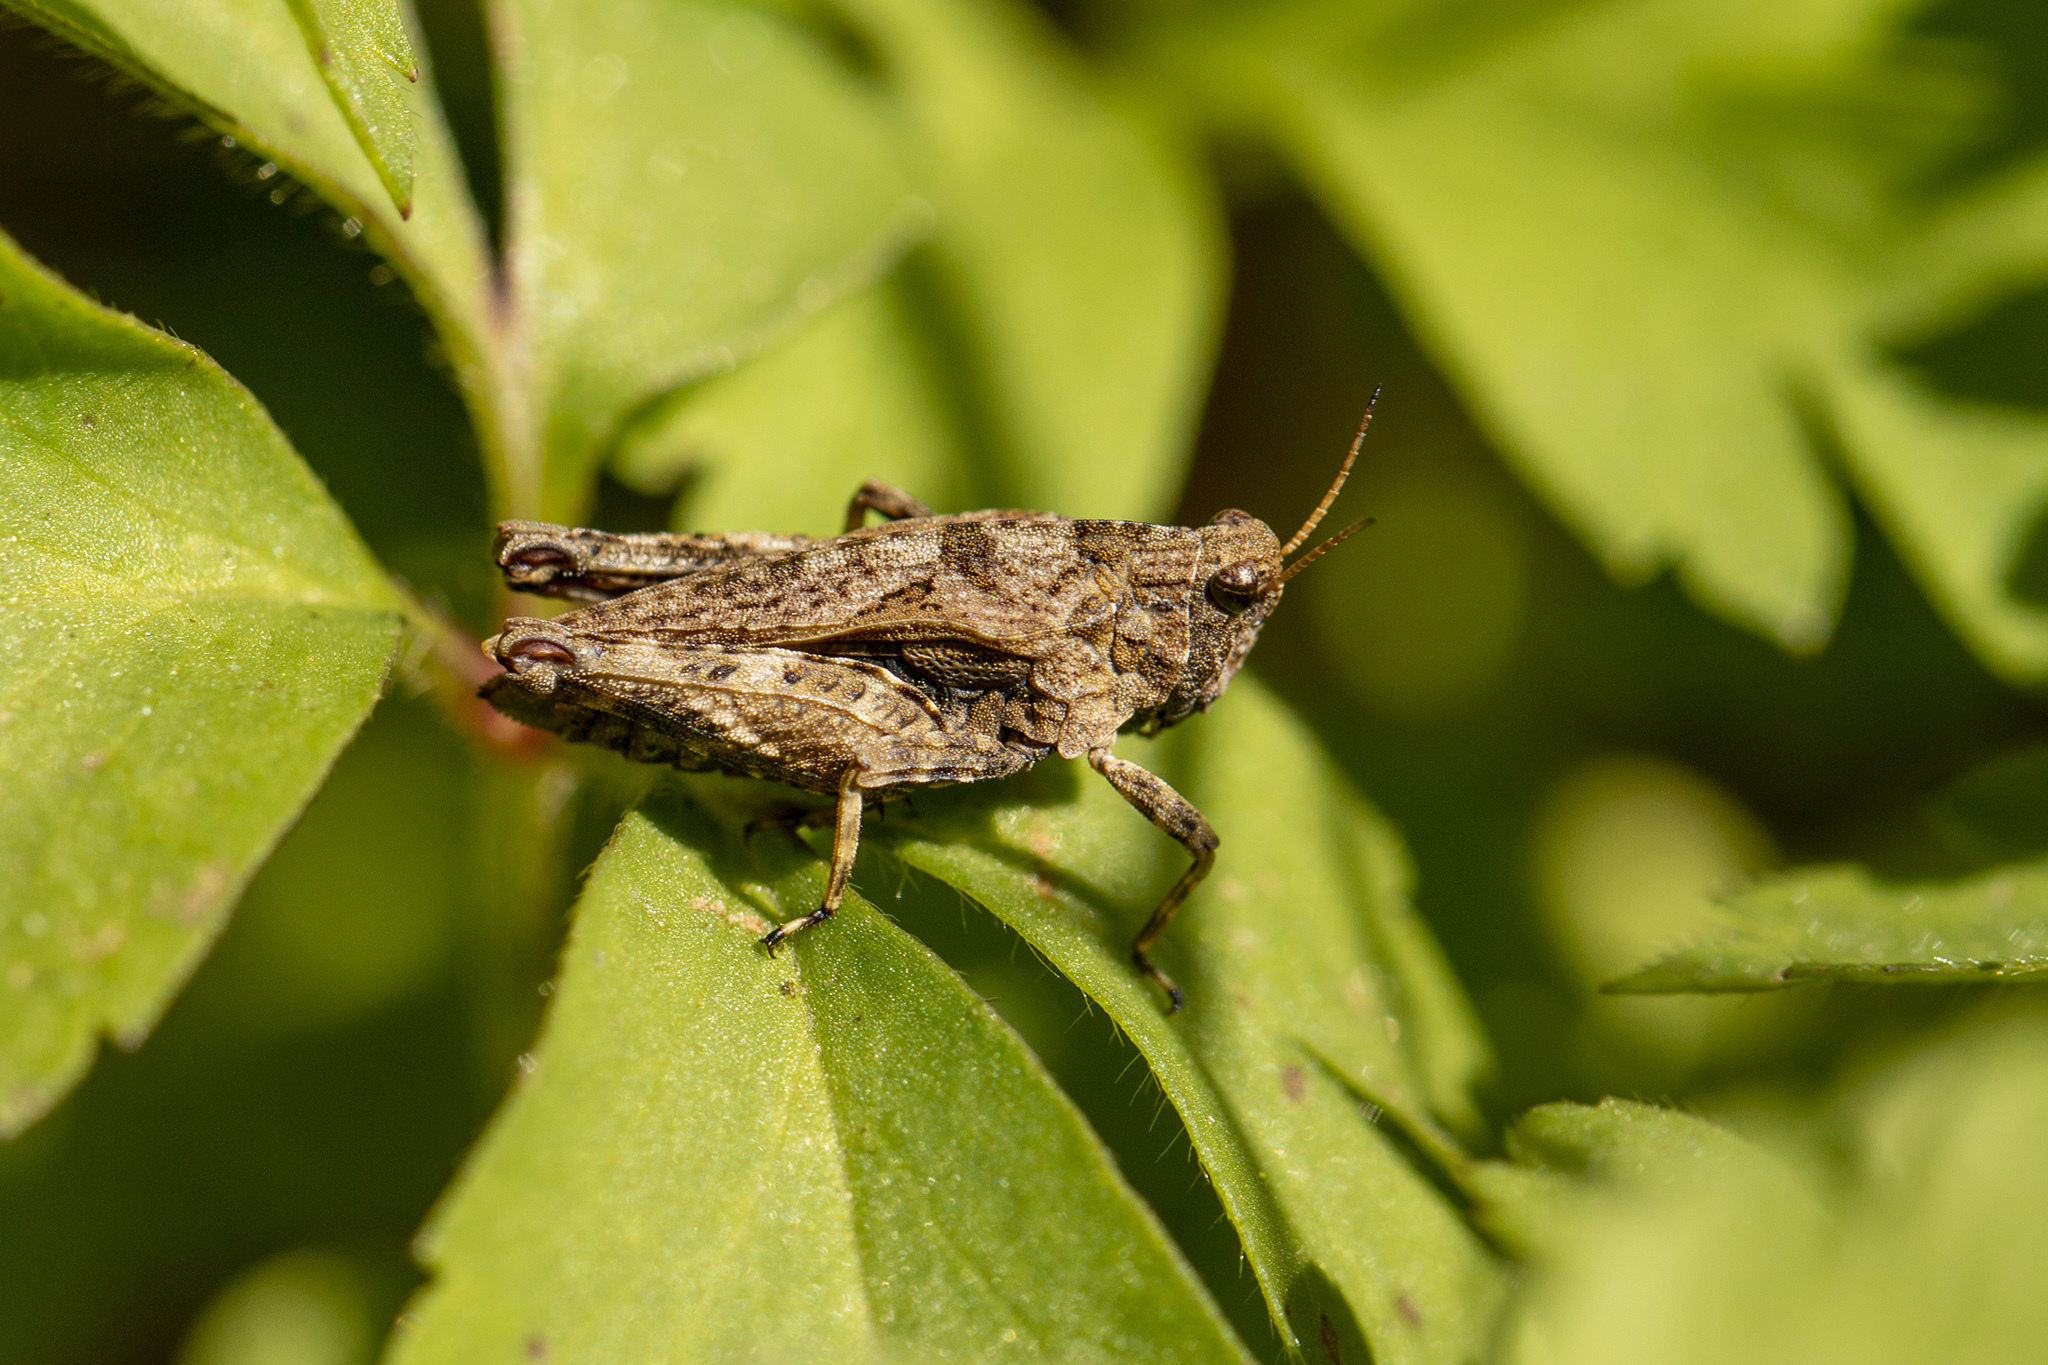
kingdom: Animalia
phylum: Arthropoda
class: Insecta
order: Orthoptera
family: Tetrigidae
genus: Tetrix
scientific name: Tetrix undulata
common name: Common groundhopper
